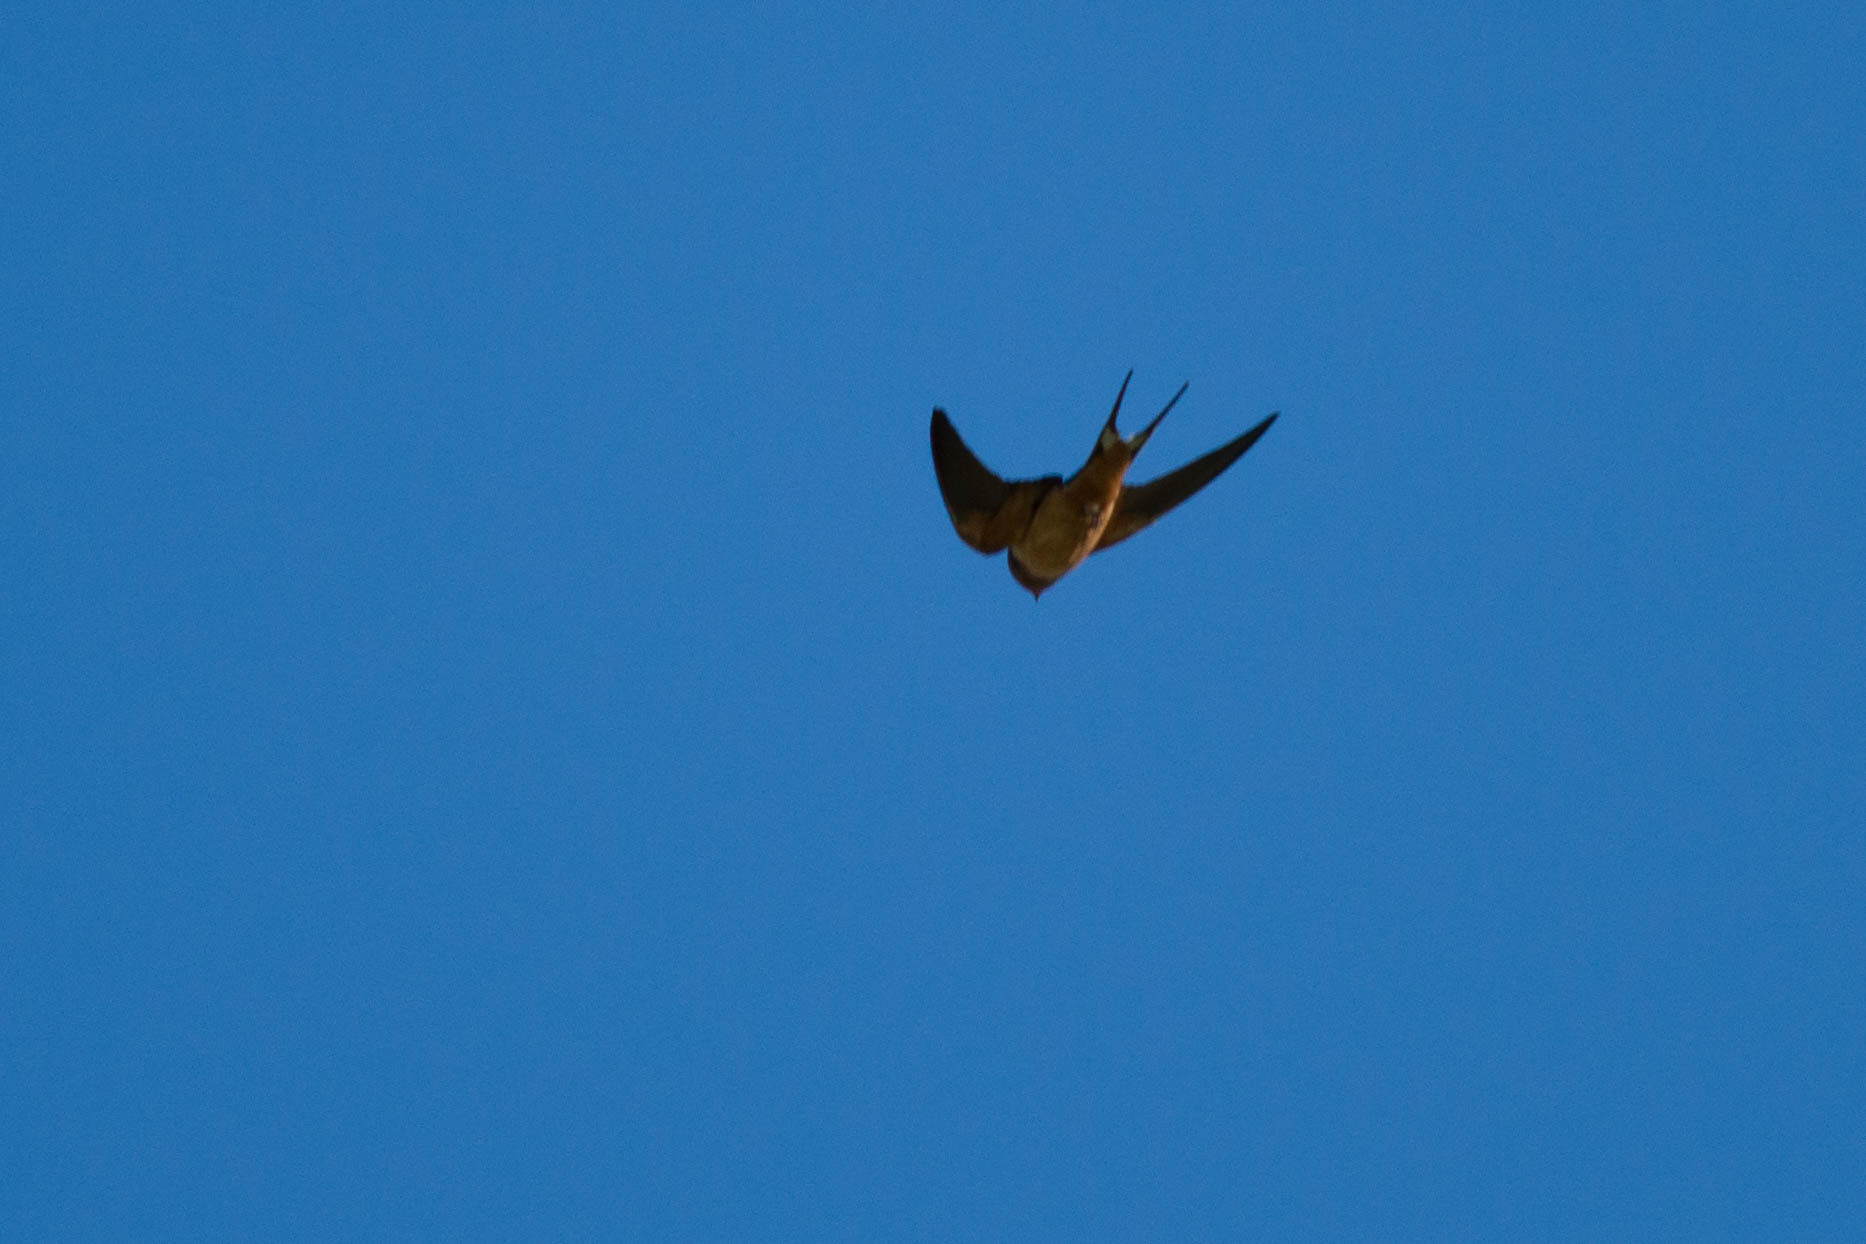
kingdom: Animalia
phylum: Chordata
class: Aves
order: Passeriformes
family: Hirundinidae
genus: Hirundo
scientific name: Hirundo rustica
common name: Barn swallow
